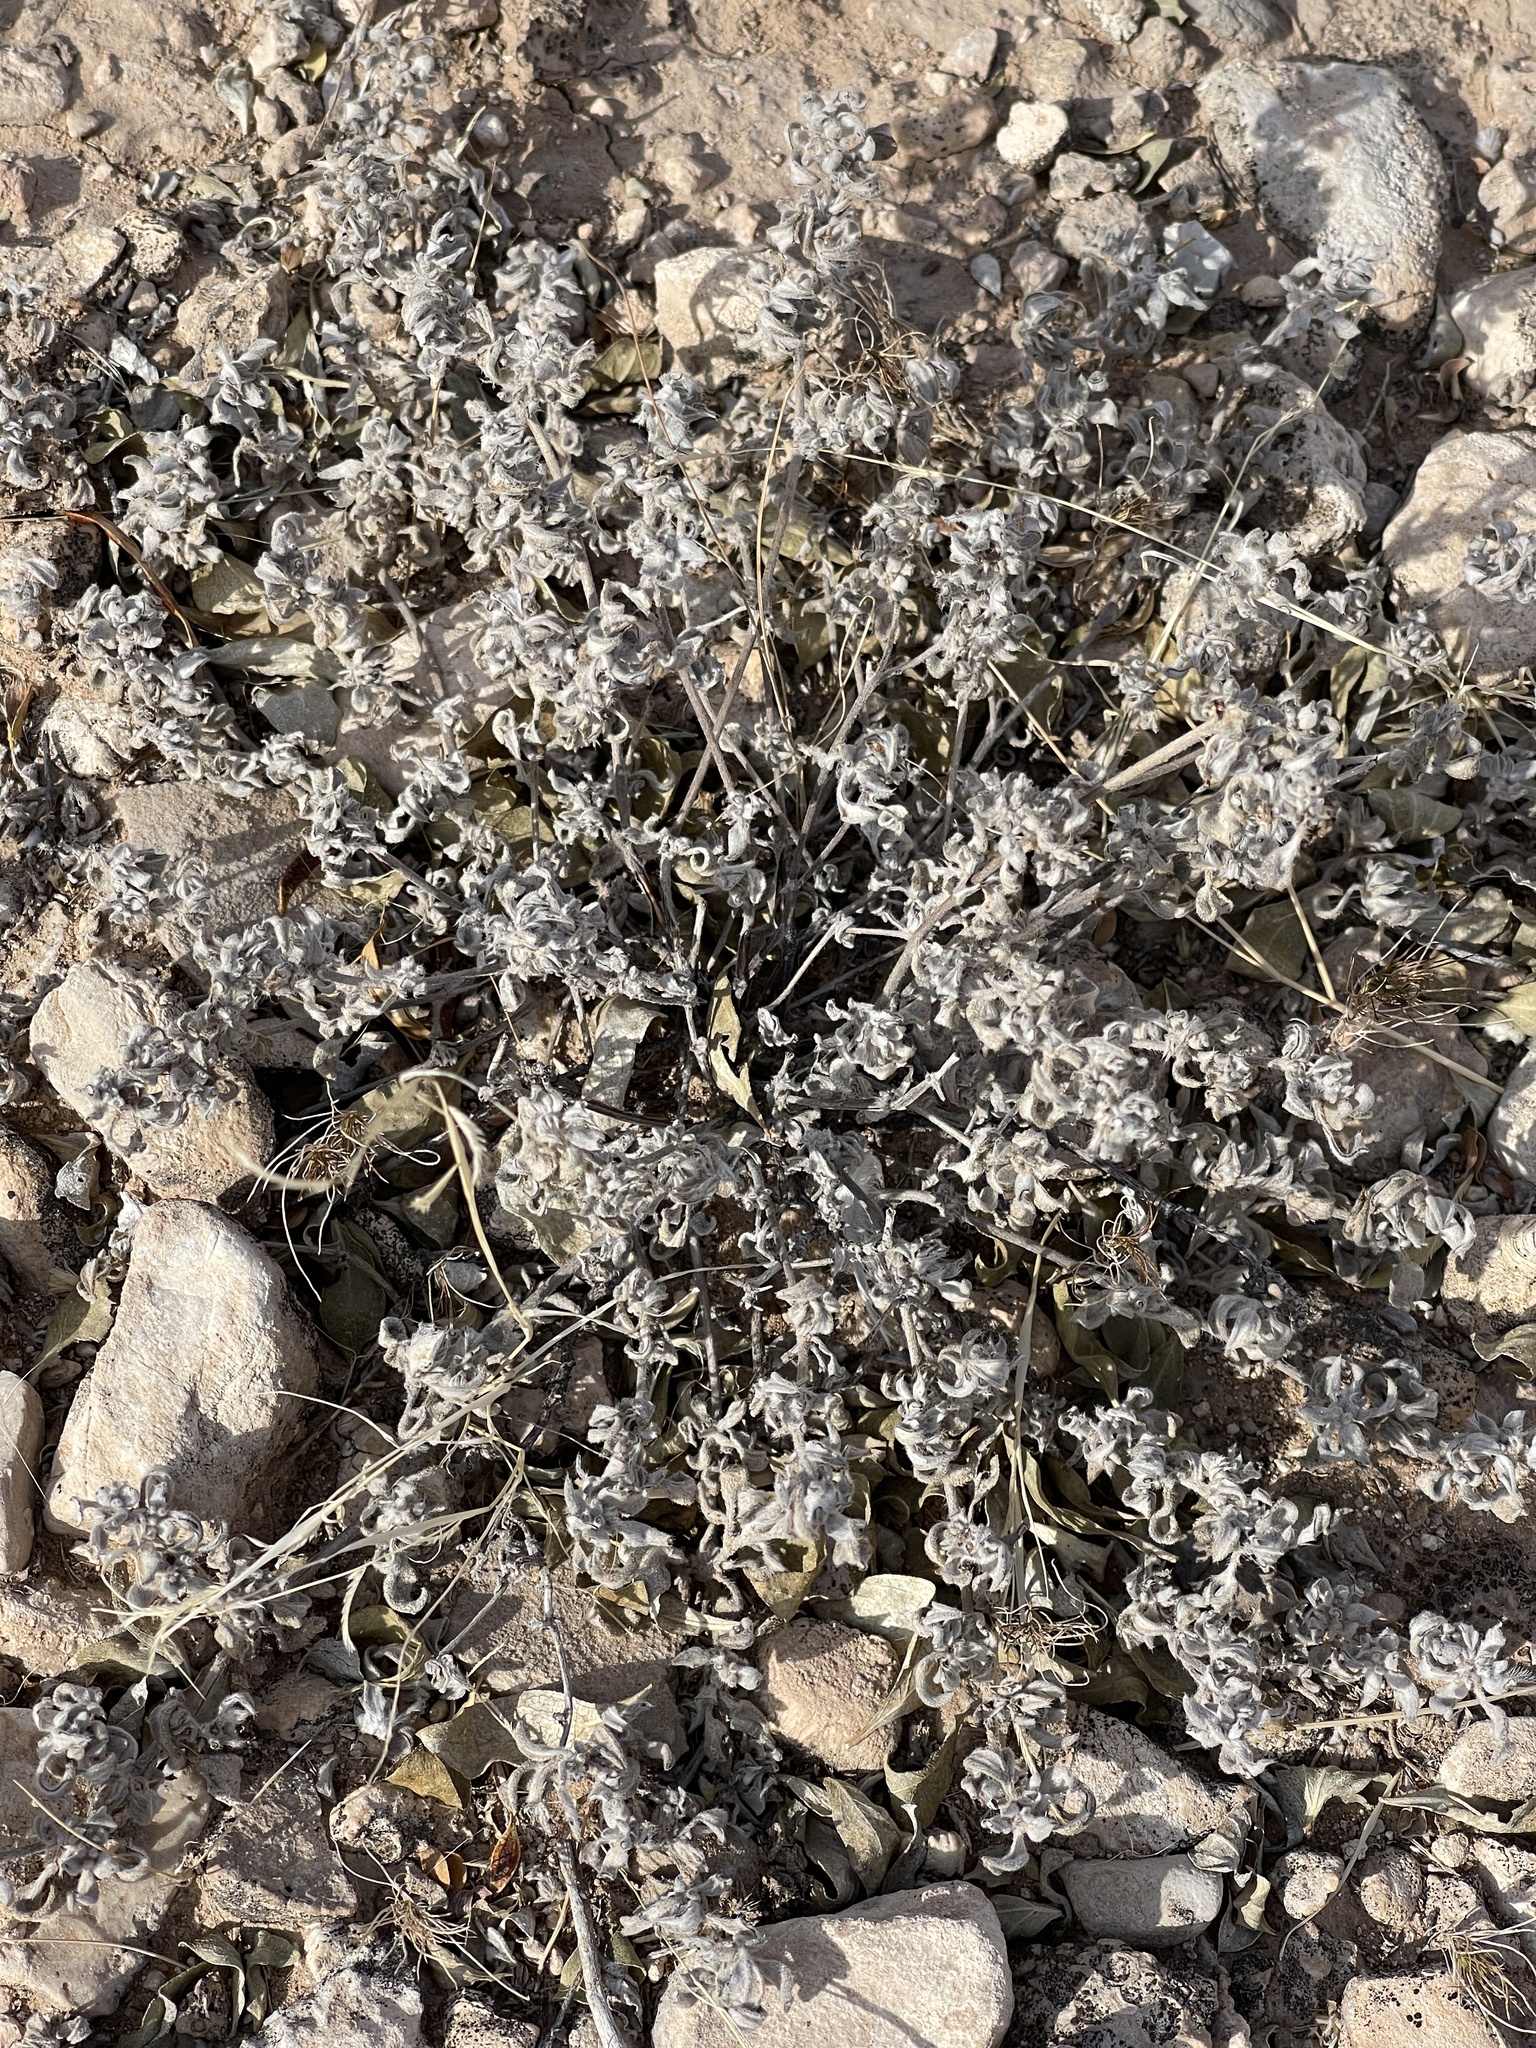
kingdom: Plantae
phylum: Tracheophyta
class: Magnoliopsida
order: Boraginales
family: Ehretiaceae
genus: Tiquilia
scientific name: Tiquilia canescens
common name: Hairy tiquilia
